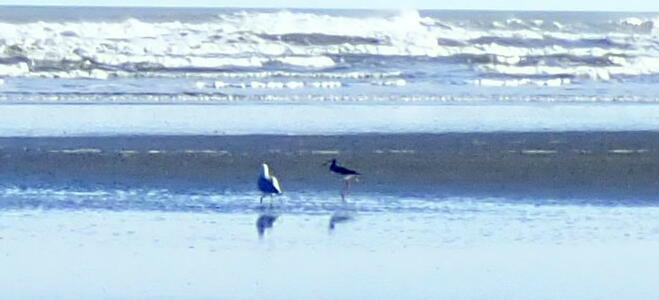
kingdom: Animalia
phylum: Chordata
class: Aves
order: Charadriiformes
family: Recurvirostridae
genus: Himantopus
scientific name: Himantopus
